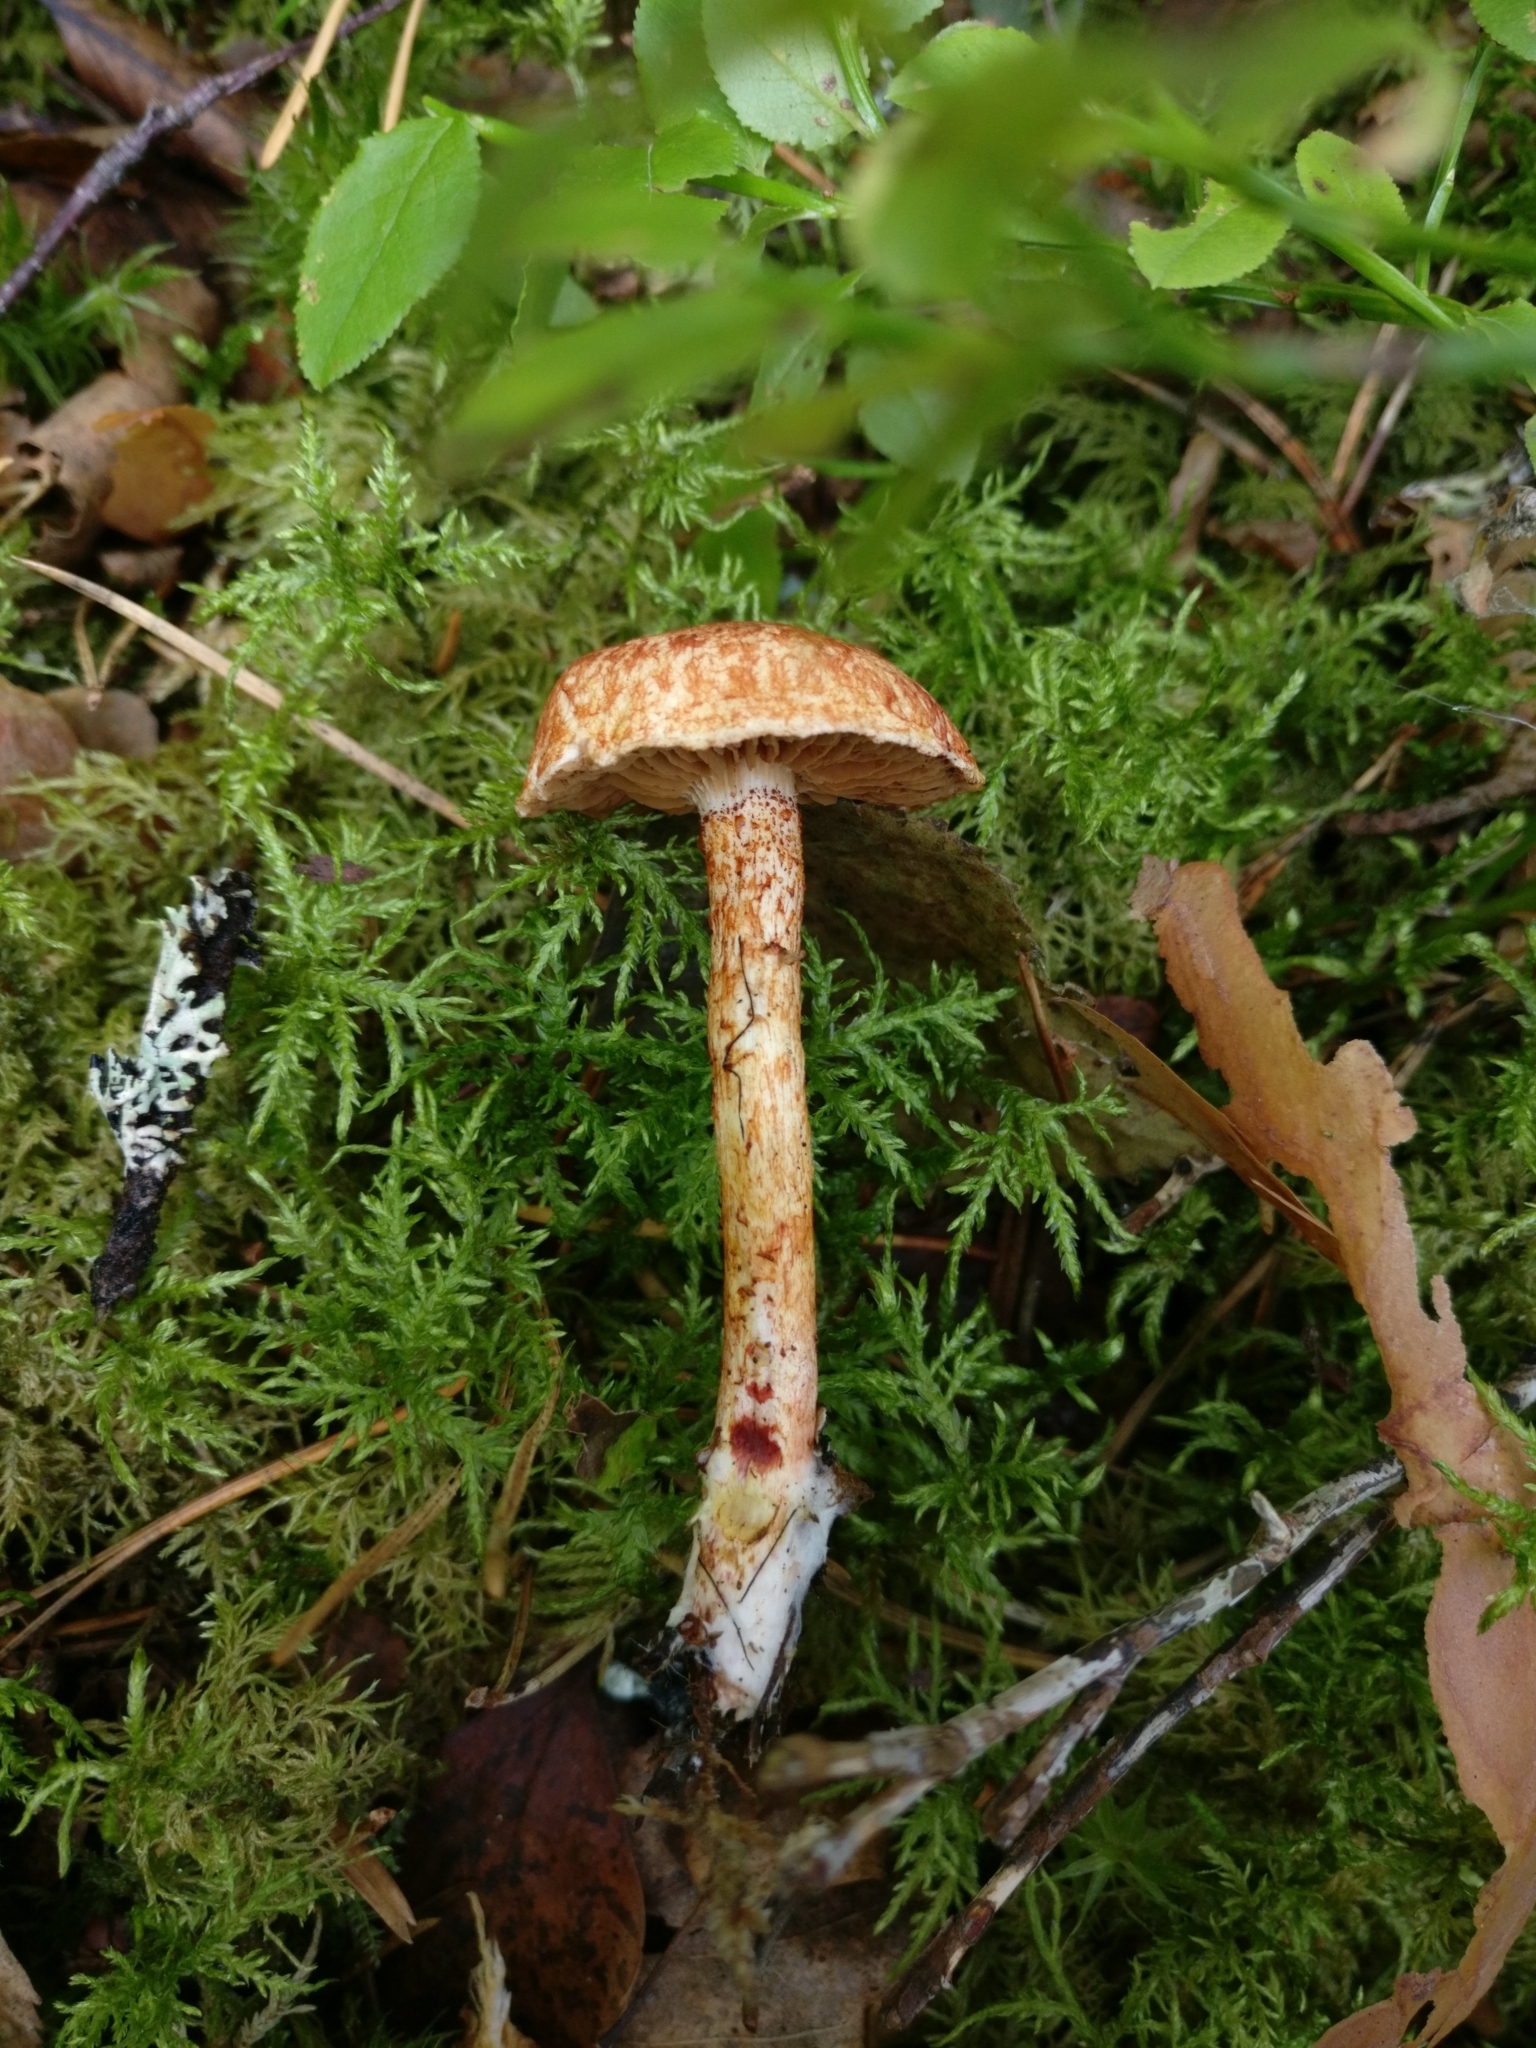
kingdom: Fungi
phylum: Basidiomycota
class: Agaricomycetes
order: Agaricales
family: Cortinariaceae
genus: Cortinarius
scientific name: Cortinarius bolaris
